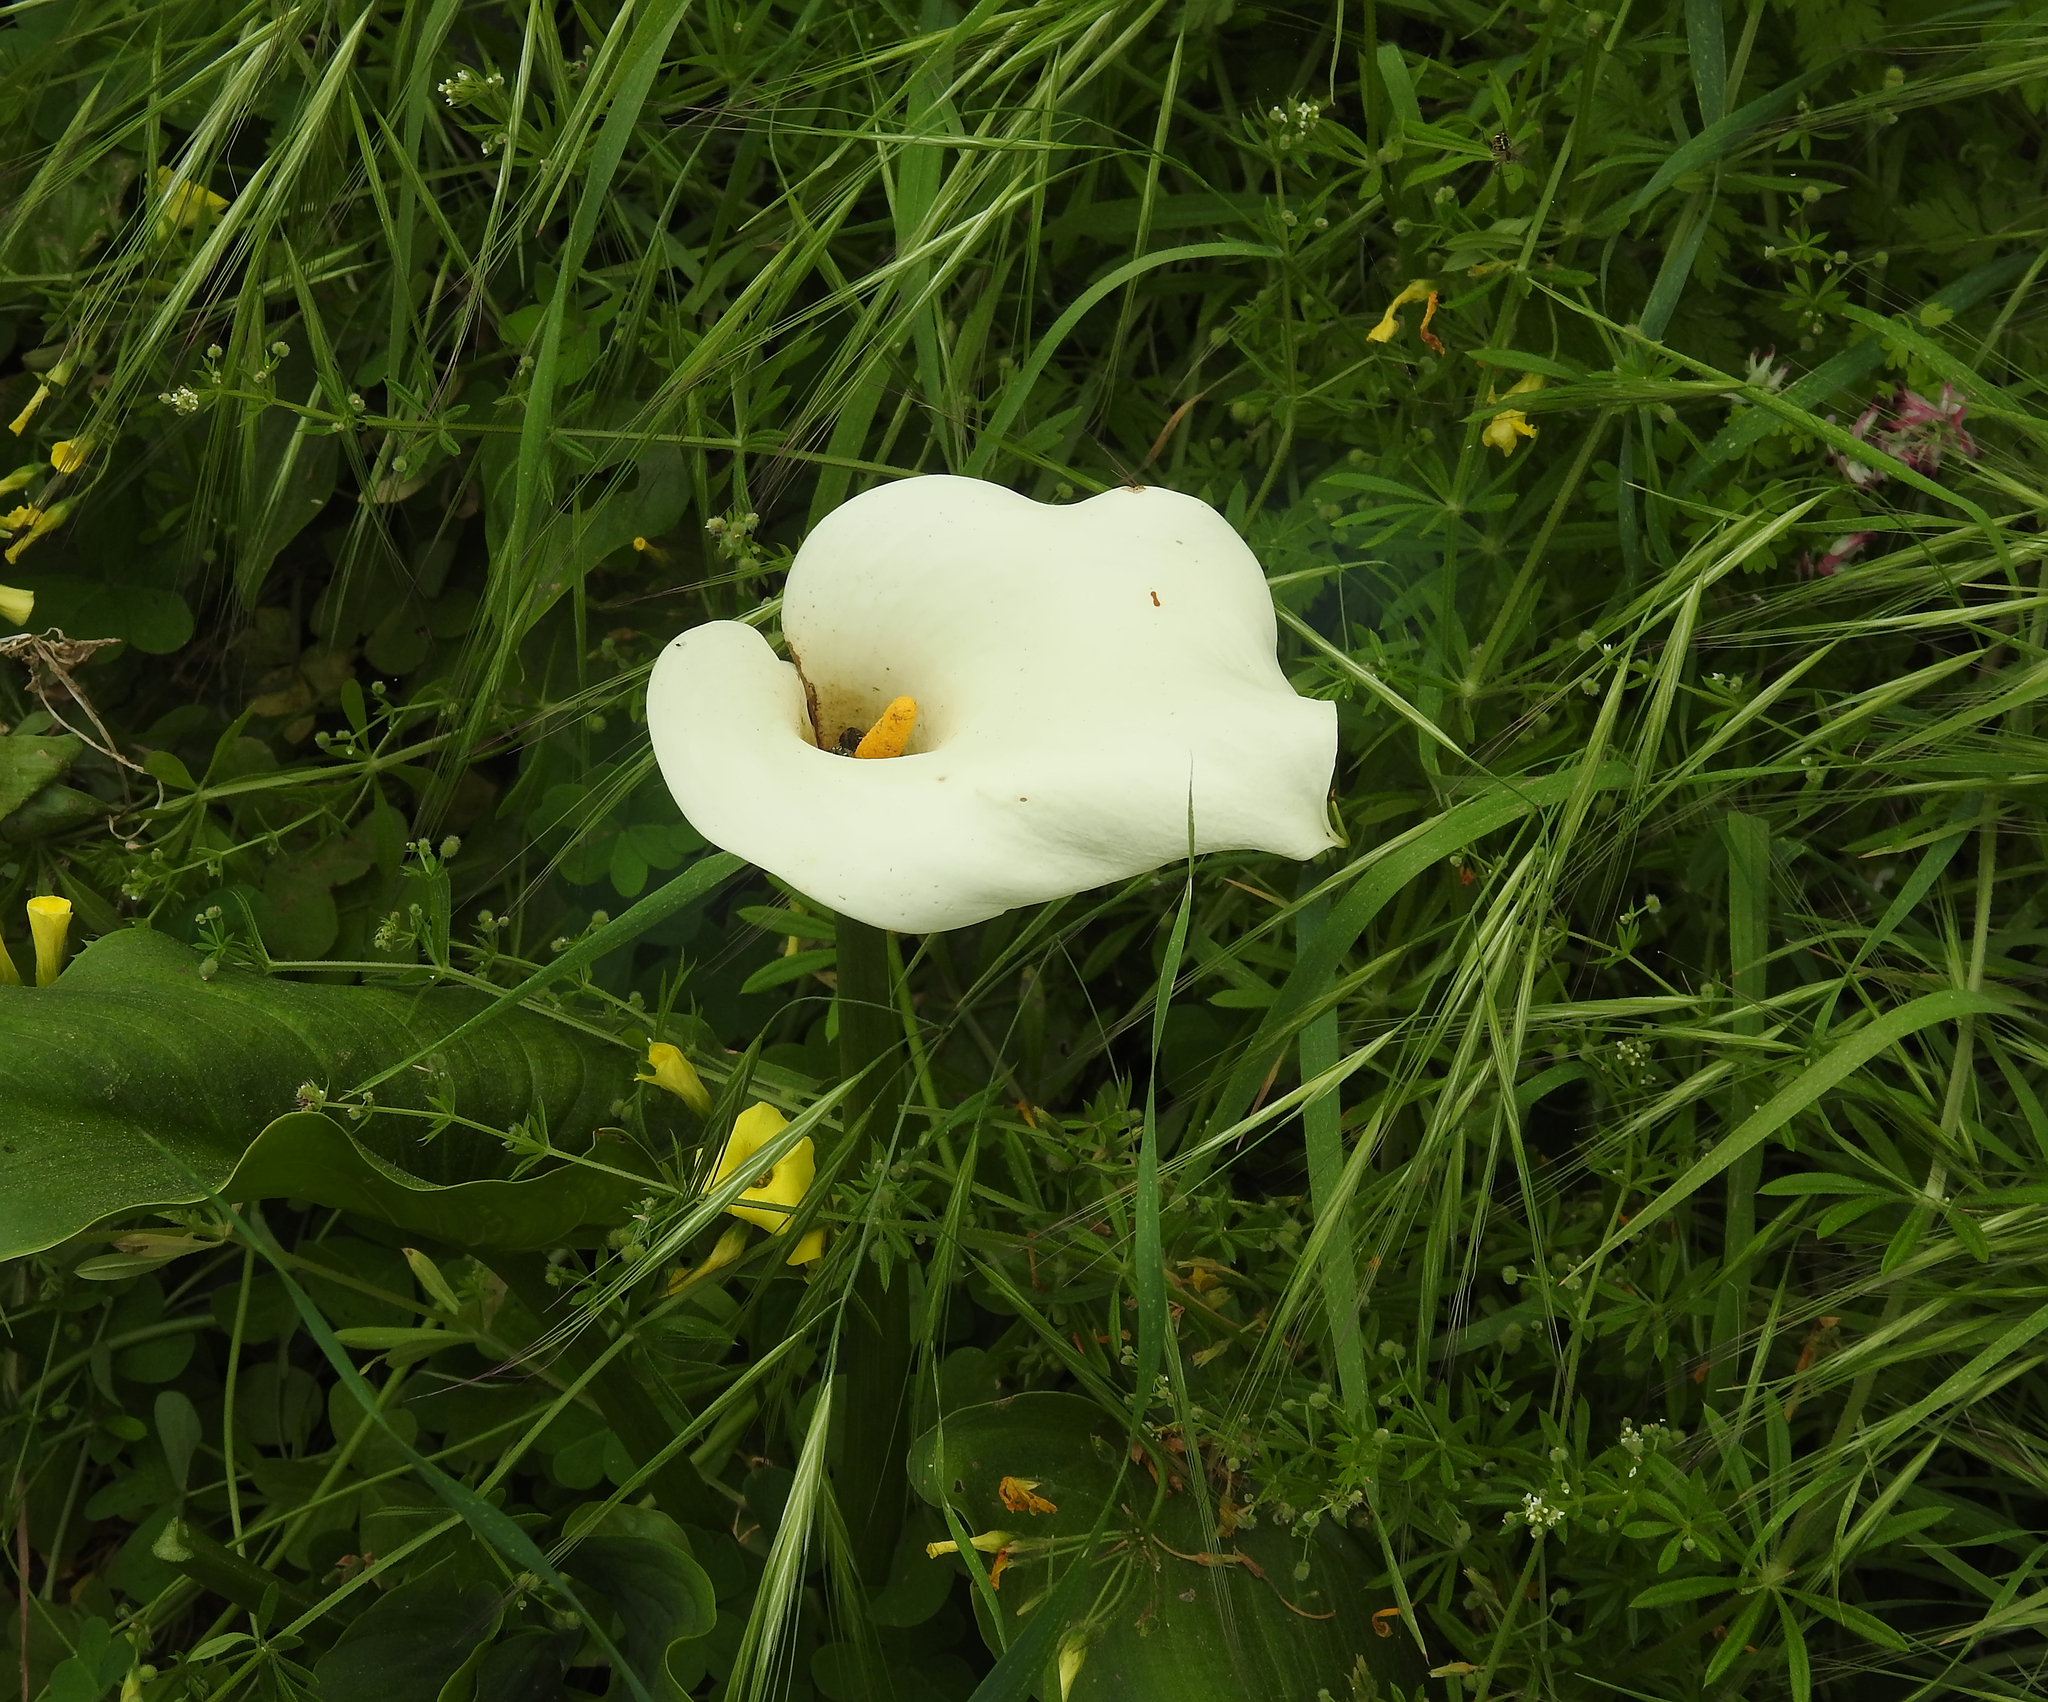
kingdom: Plantae
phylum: Tracheophyta
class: Liliopsida
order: Alismatales
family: Araceae
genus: Zantedeschia
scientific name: Zantedeschia aethiopica
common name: Altar-lily
